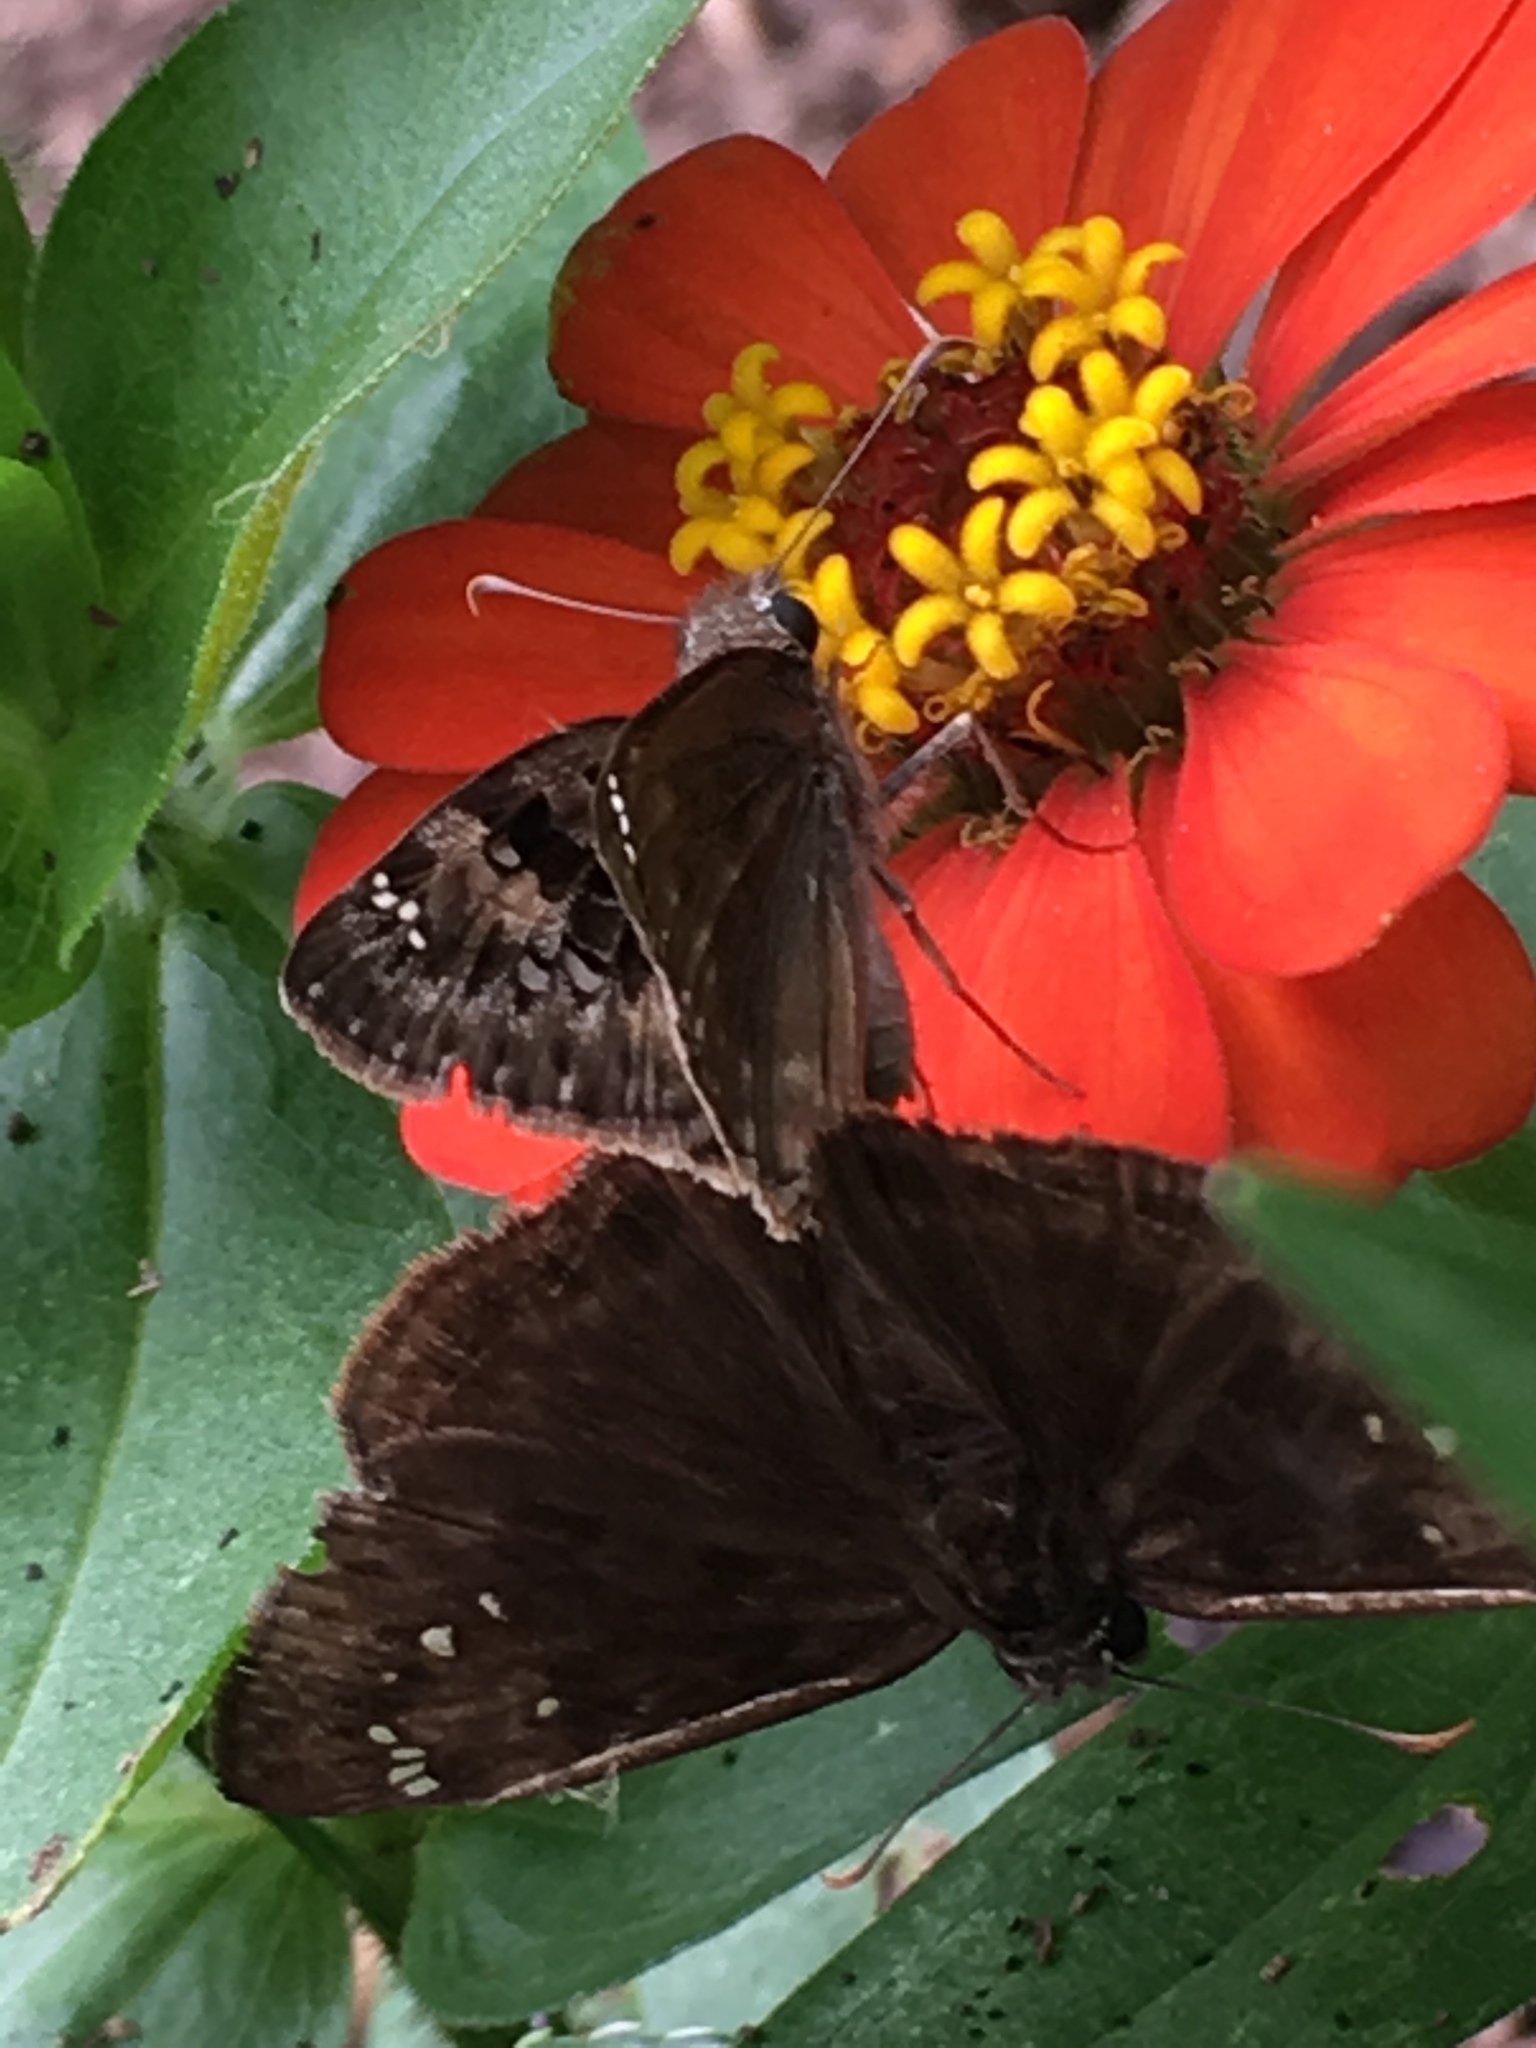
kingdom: Animalia
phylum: Arthropoda
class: Insecta
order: Lepidoptera
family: Hesperiidae
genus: Erynnis
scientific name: Erynnis horatius
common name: Horace's duskywing
